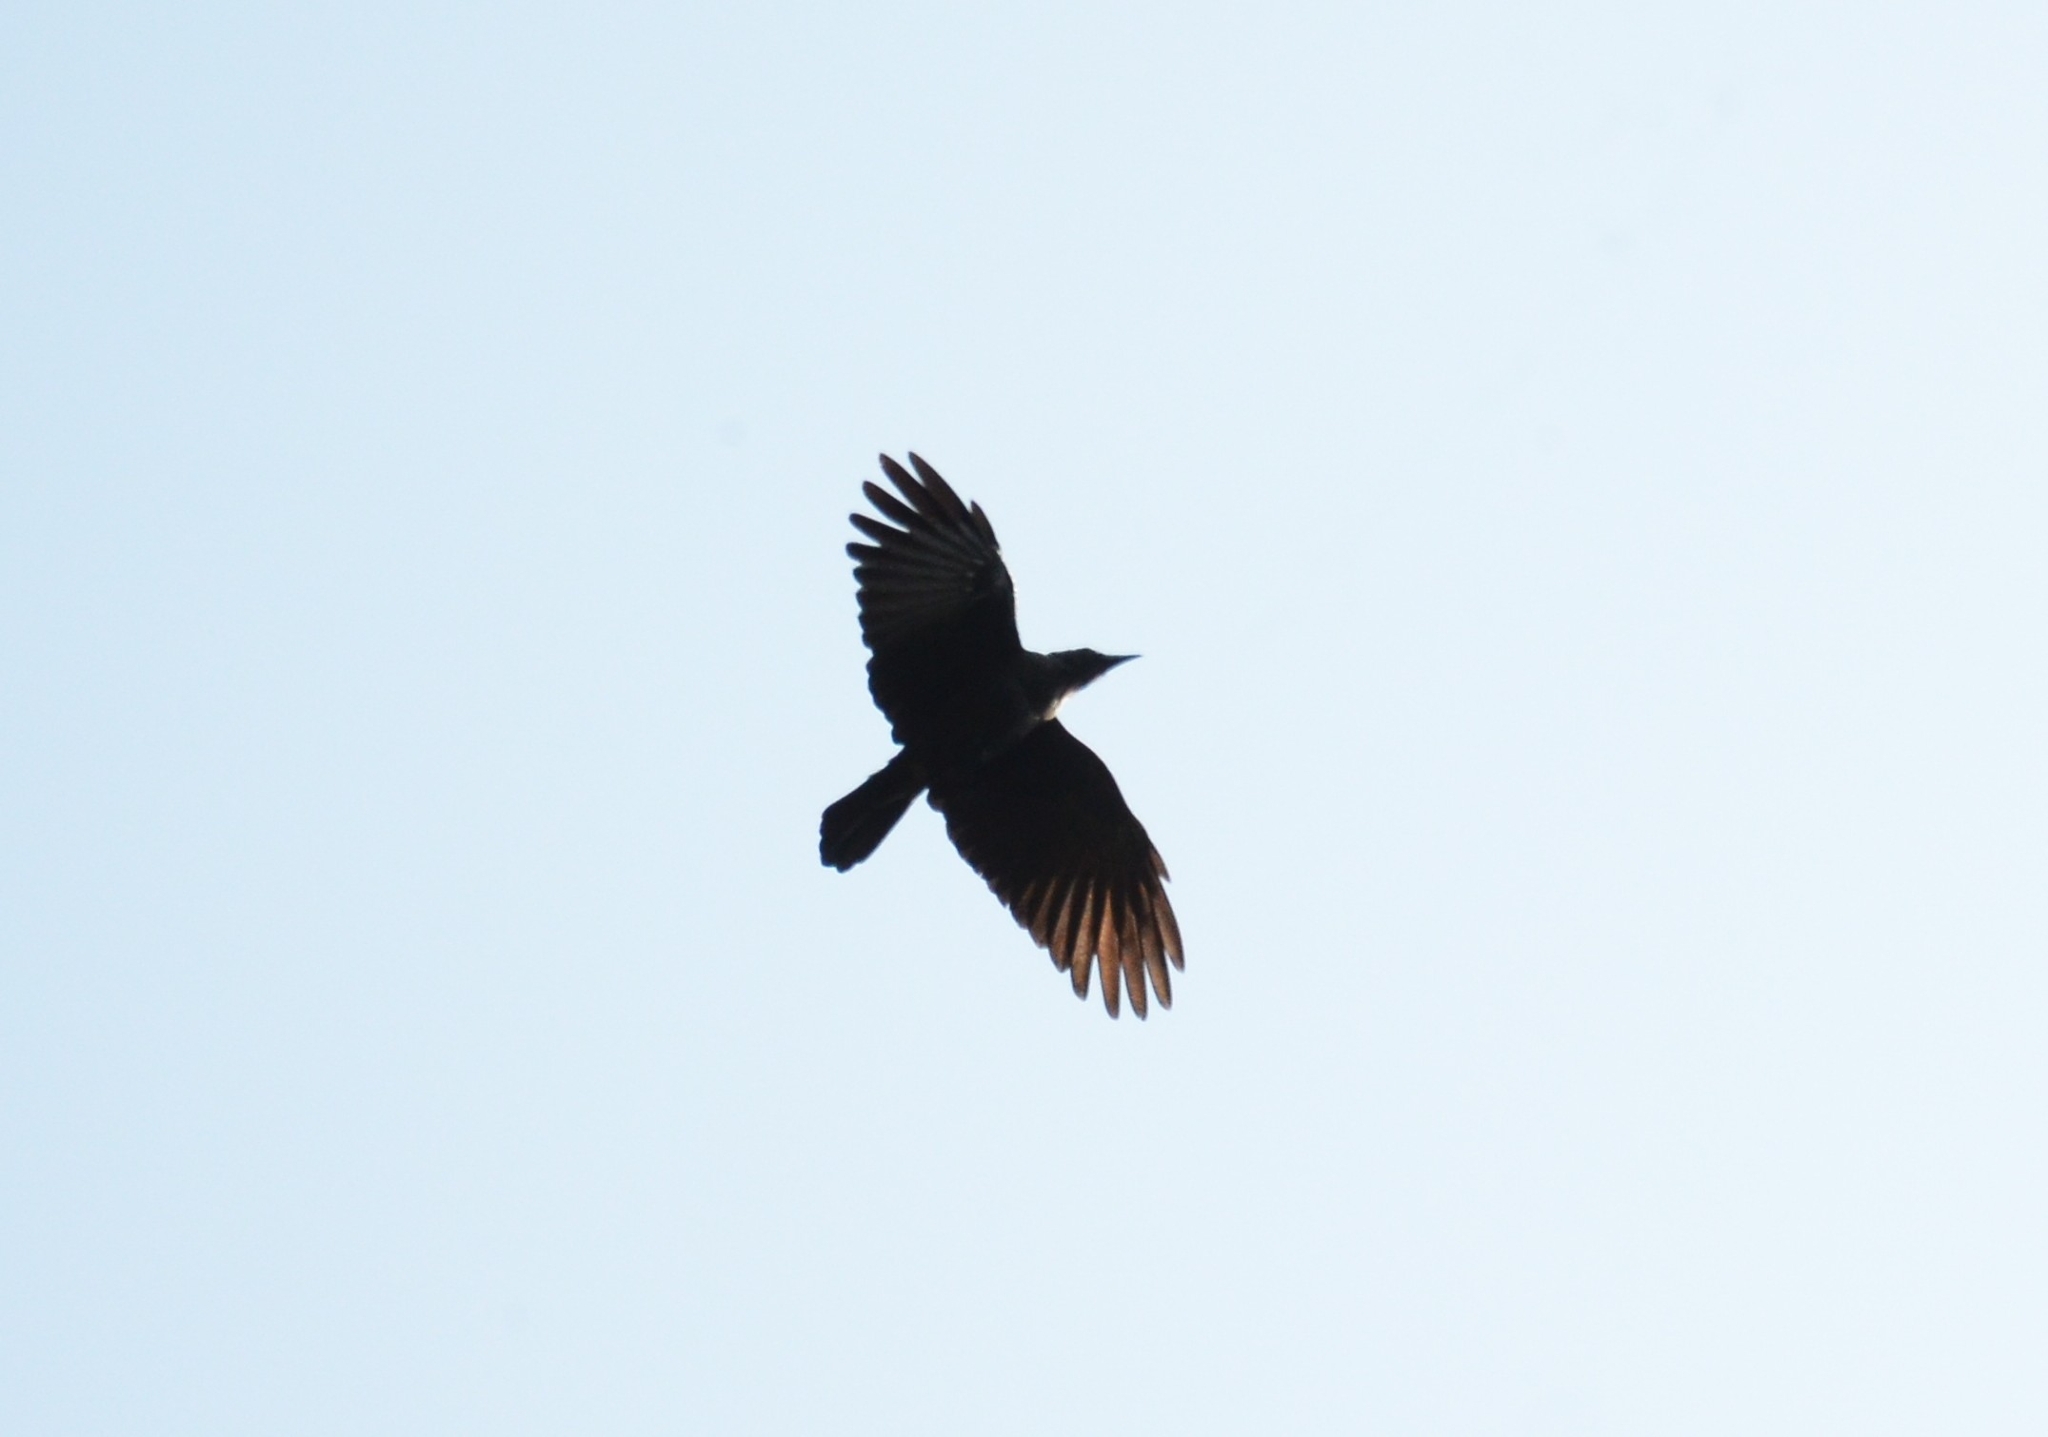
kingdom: Animalia
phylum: Chordata
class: Aves
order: Passeriformes
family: Corvidae
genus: Corvus
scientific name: Corvus splendens
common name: House crow
